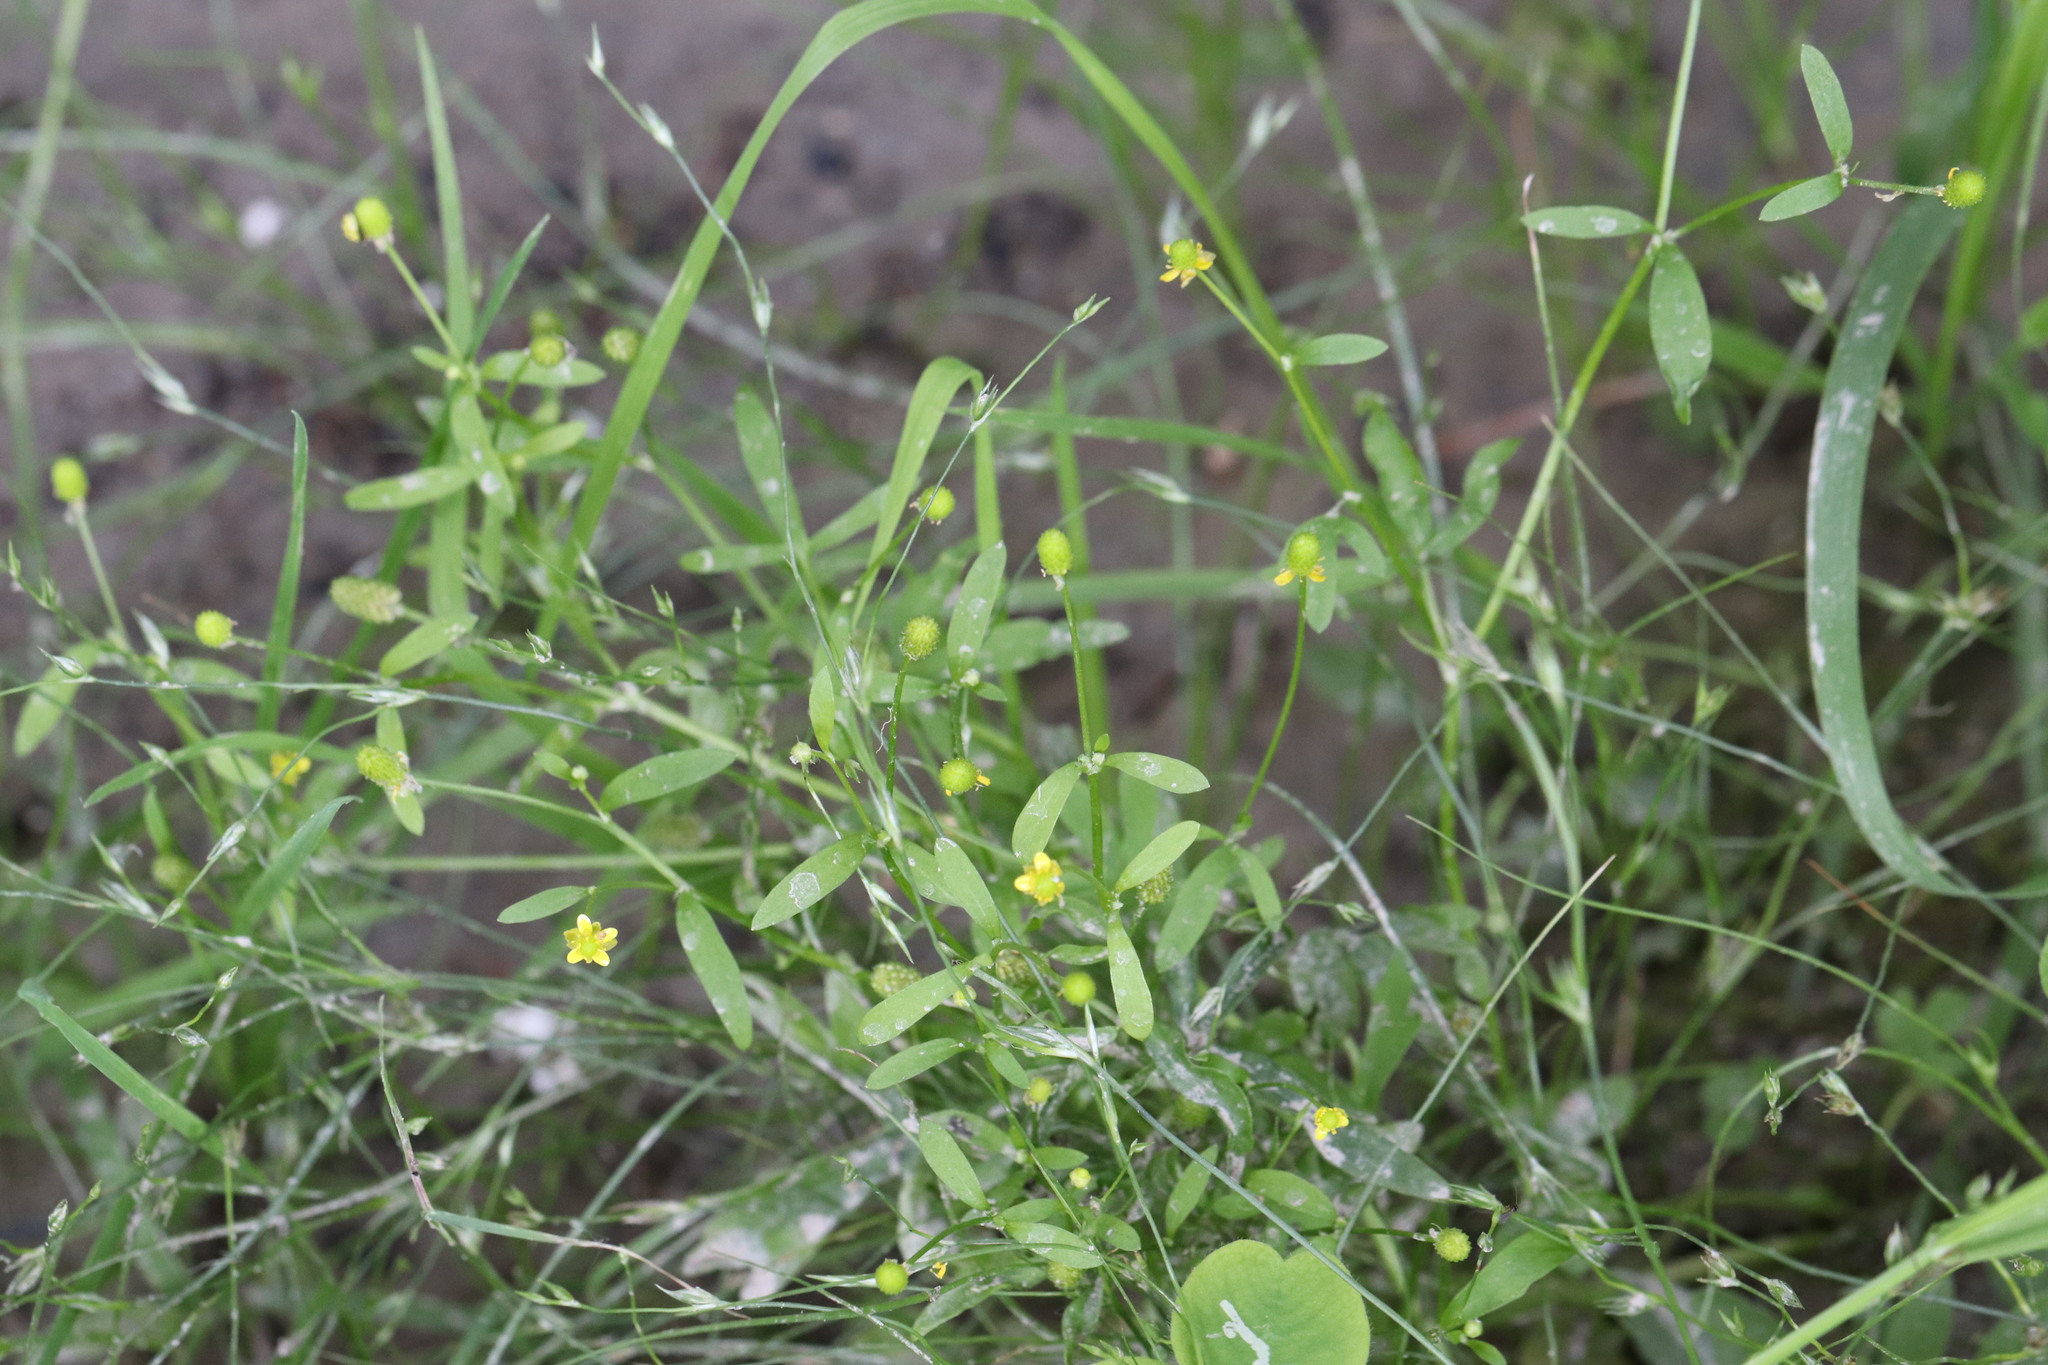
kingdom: Plantae
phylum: Tracheophyta
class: Magnoliopsida
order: Ranunculales
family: Ranunculaceae
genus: Ranunculus
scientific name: Ranunculus sceleratus
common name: Celery-leaved buttercup
